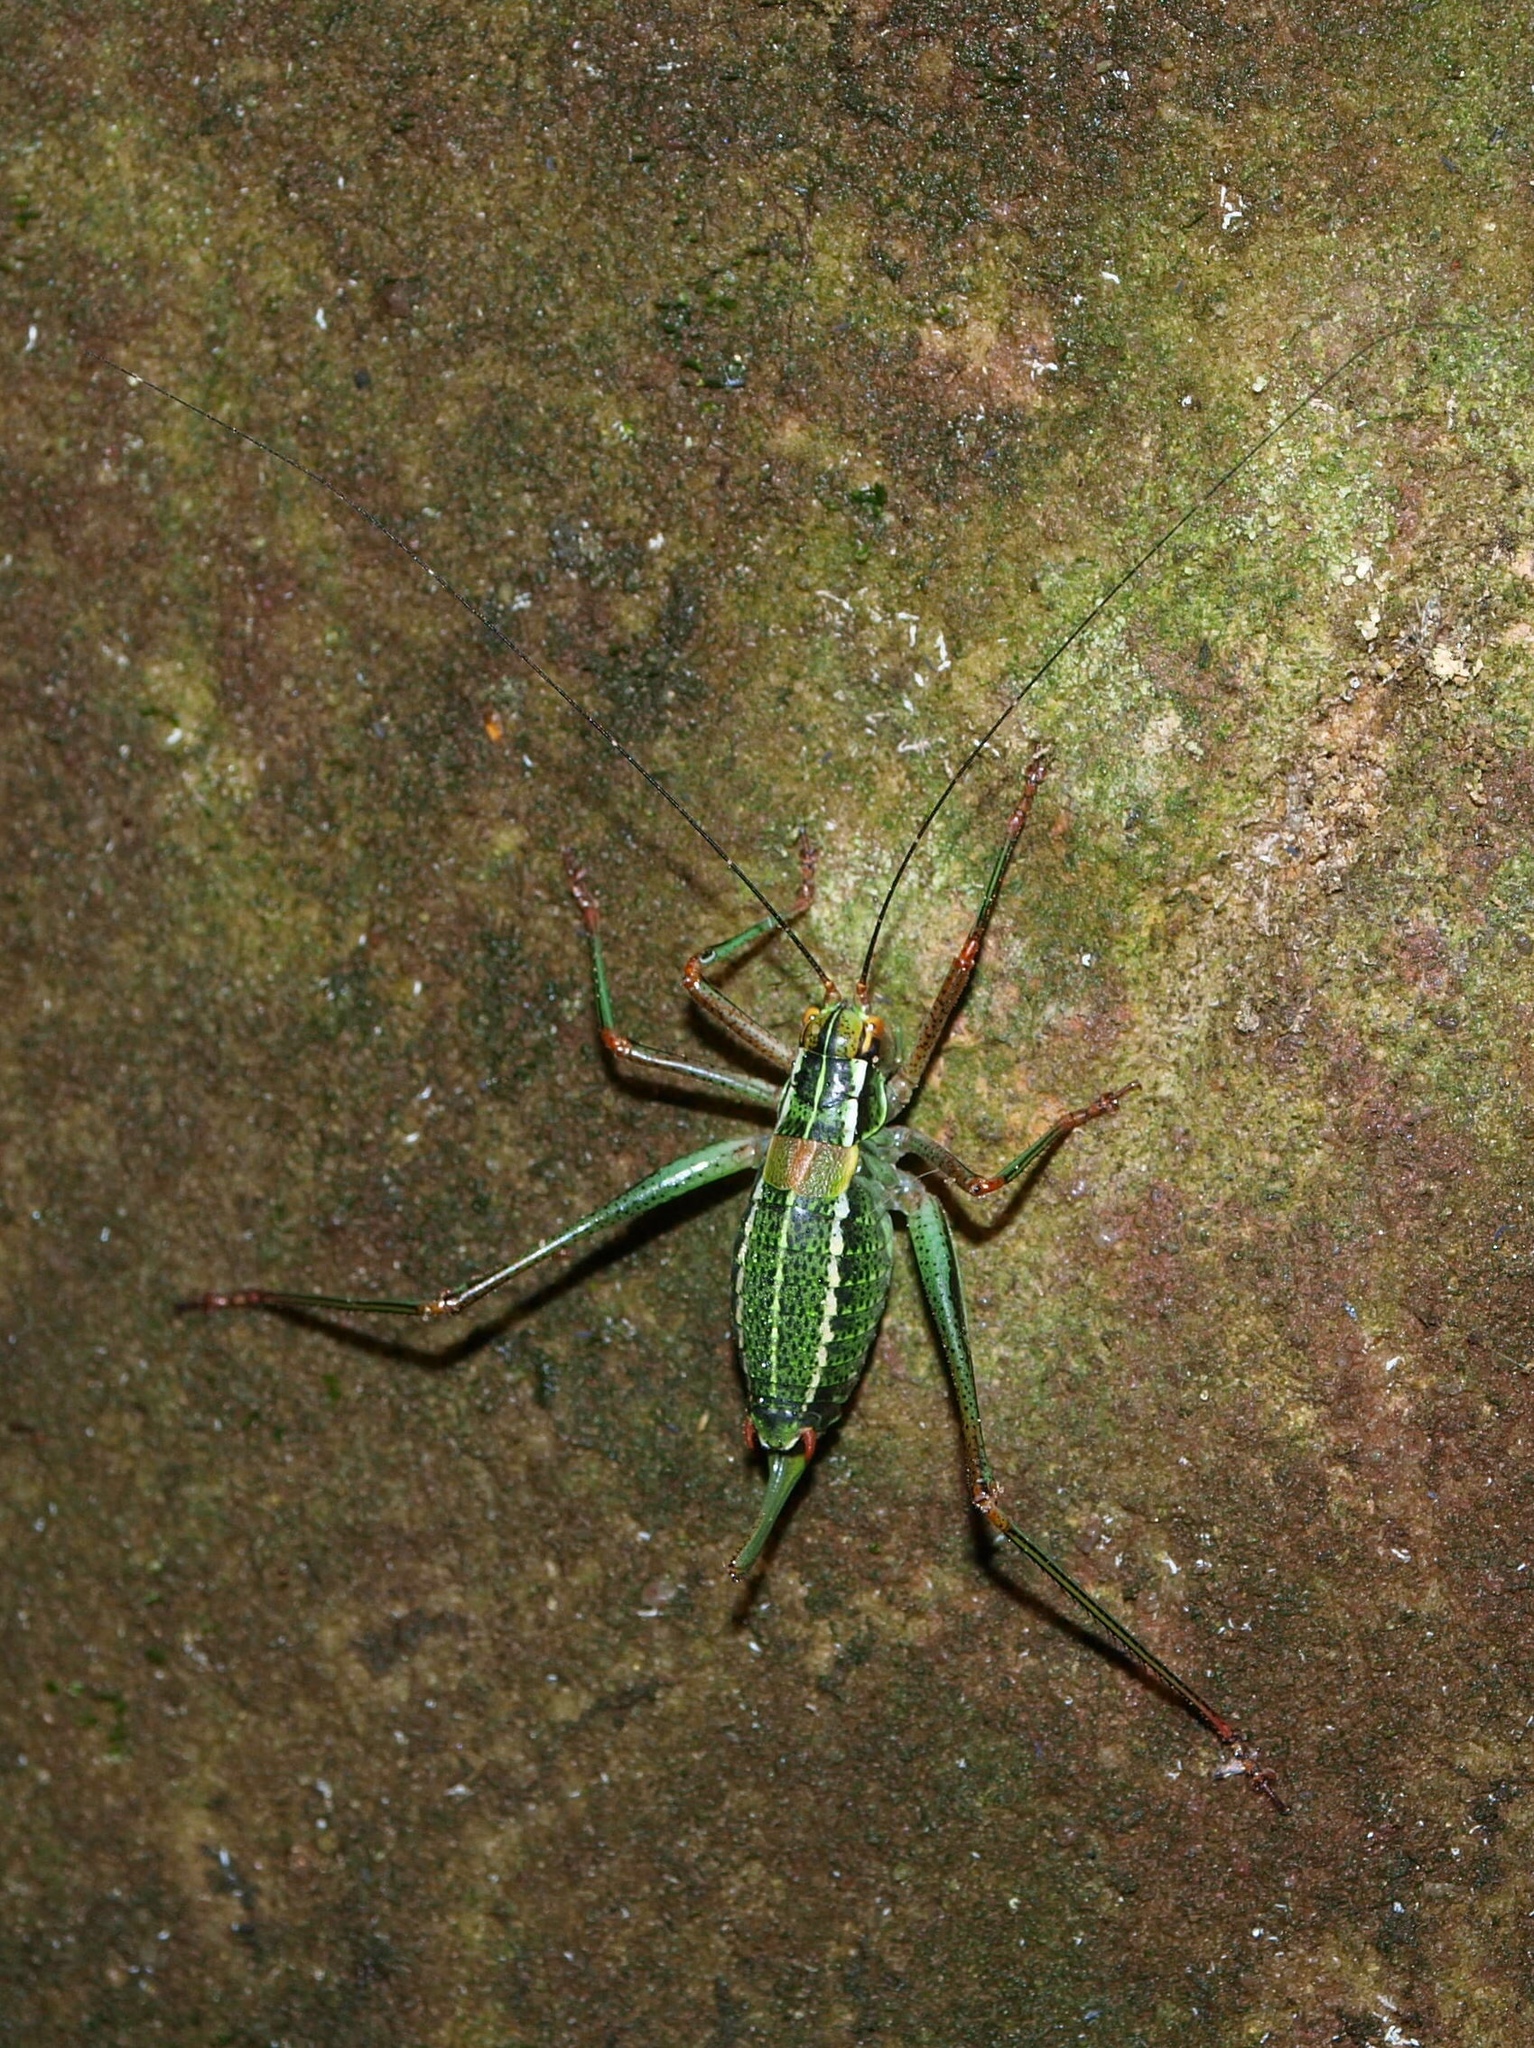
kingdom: Animalia
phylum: Arthropoda
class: Insecta
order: Orthoptera
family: Tettigoniidae
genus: Barbitistes
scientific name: Barbitistes constrictus
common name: Eastern saw-tailed bush cricket
